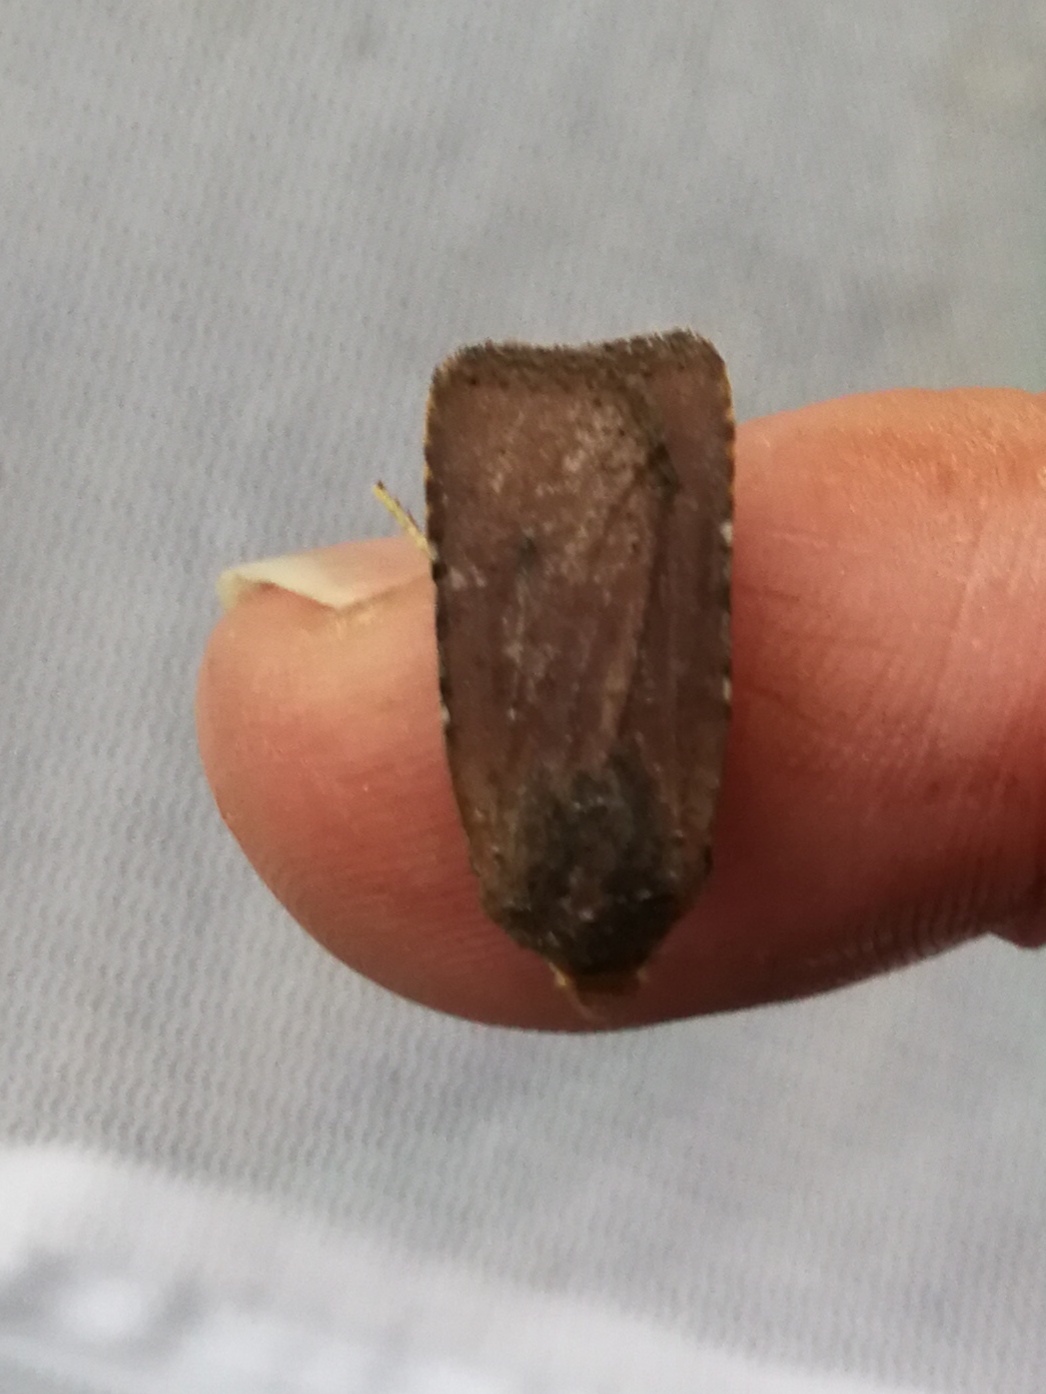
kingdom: Animalia
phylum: Arthropoda
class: Insecta
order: Lepidoptera
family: Noctuidae
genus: Conistra
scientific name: Conistra staudingeri
